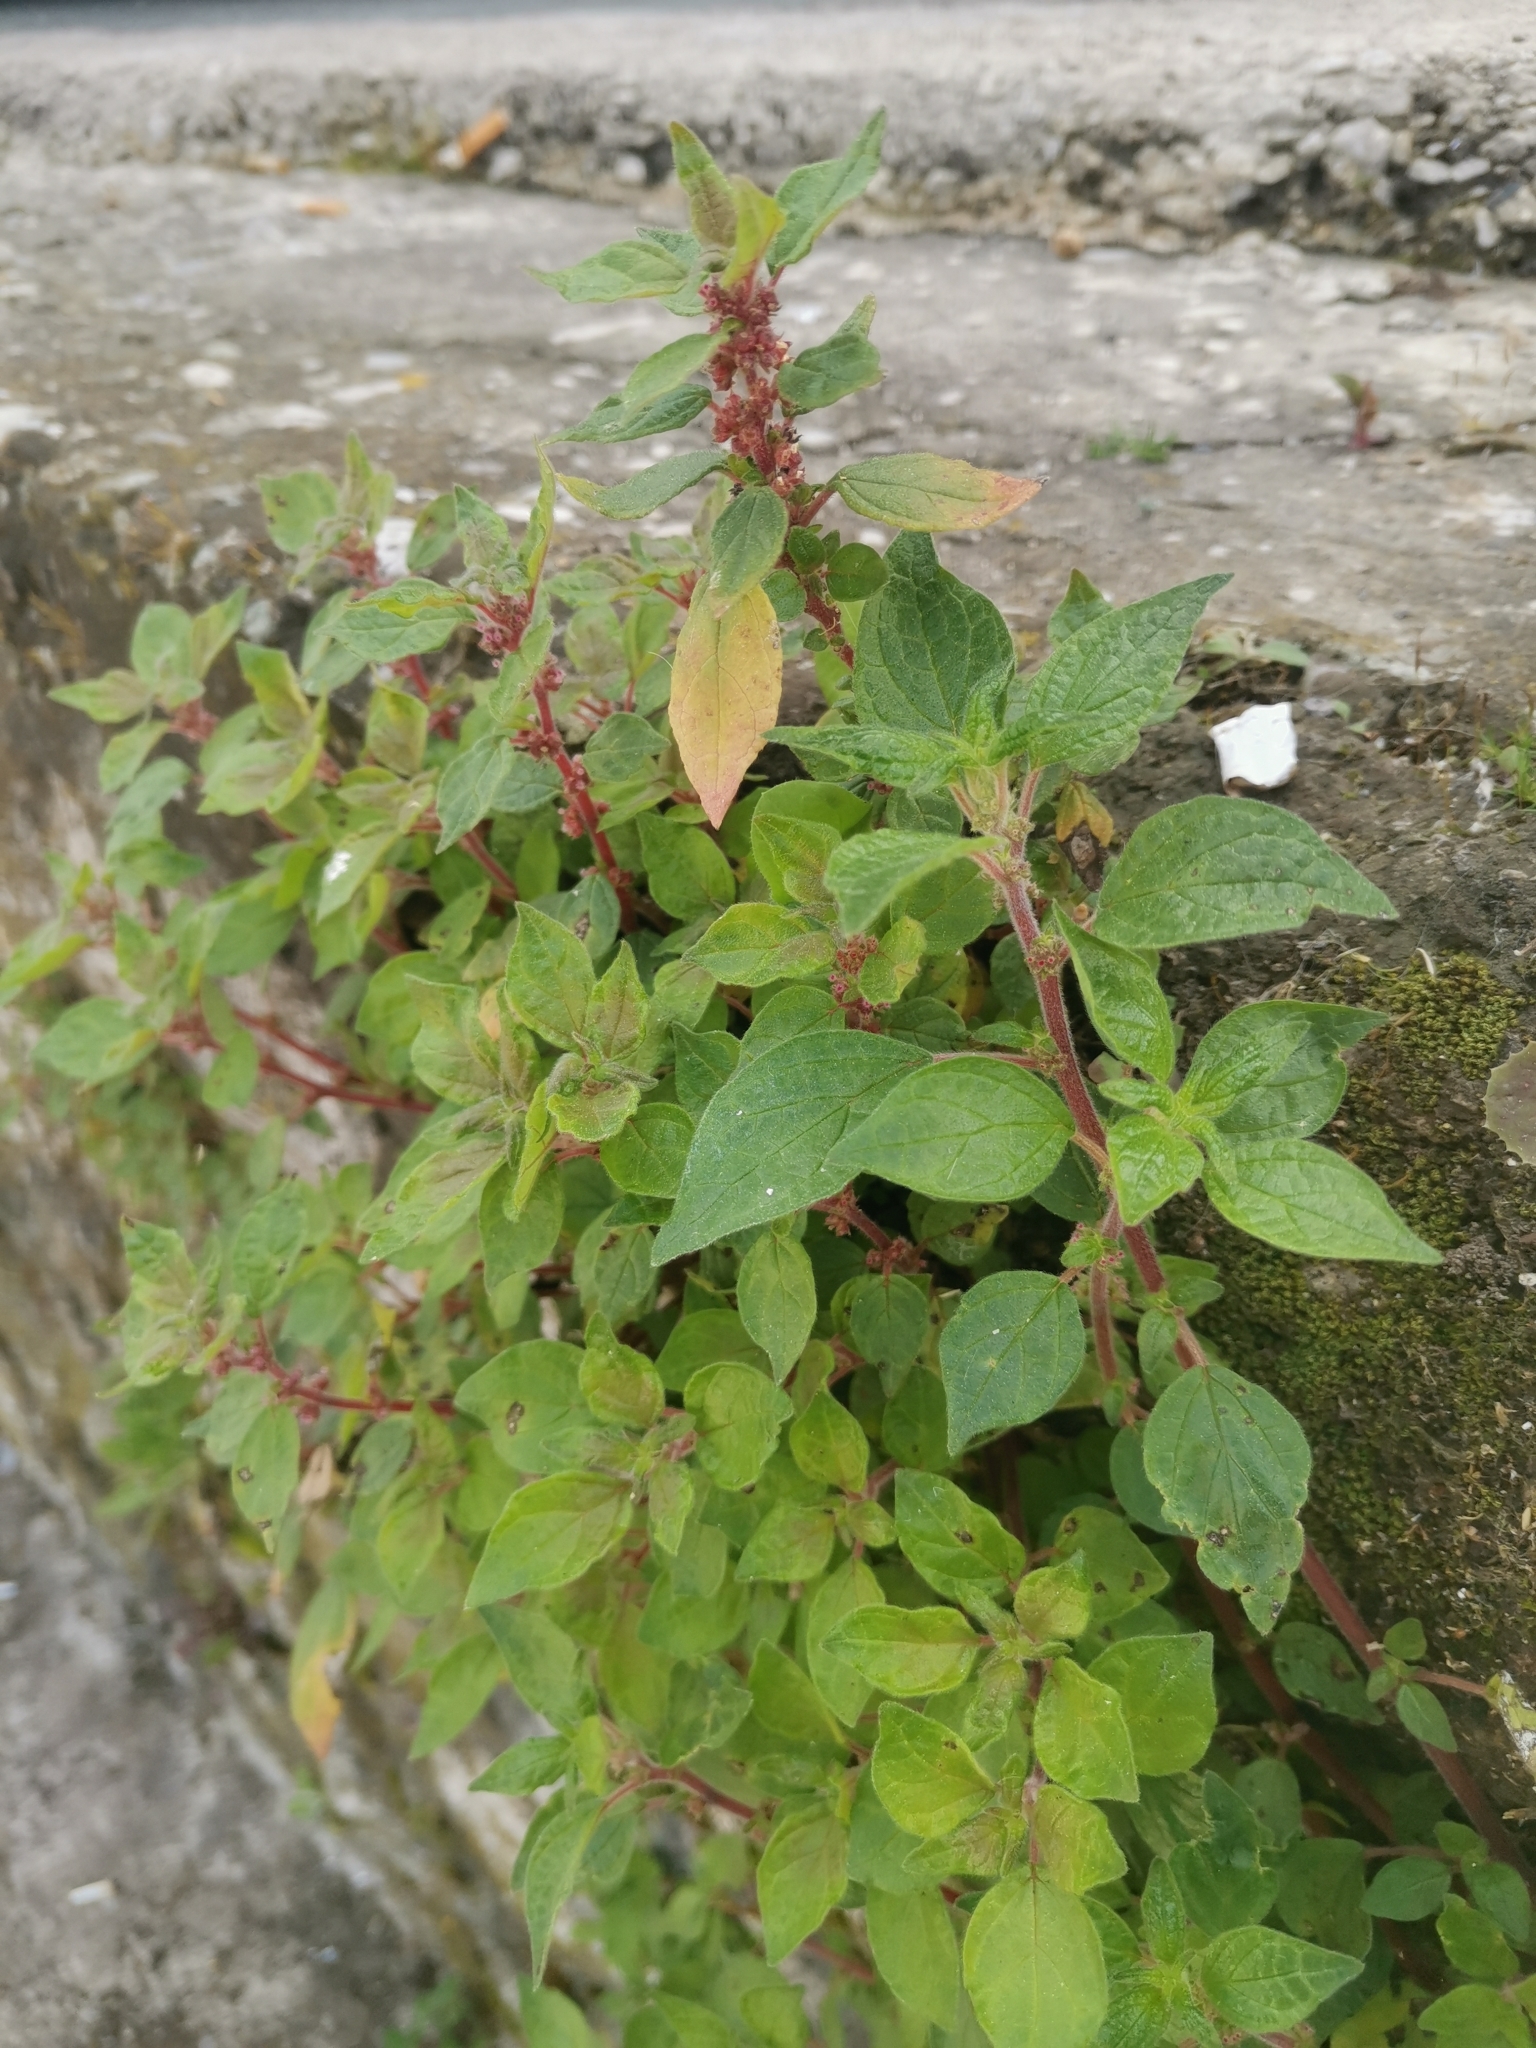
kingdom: Plantae
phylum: Tracheophyta
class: Magnoliopsida
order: Rosales
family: Urticaceae
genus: Parietaria
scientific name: Parietaria judaica
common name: Pellitory-of-the-wall
